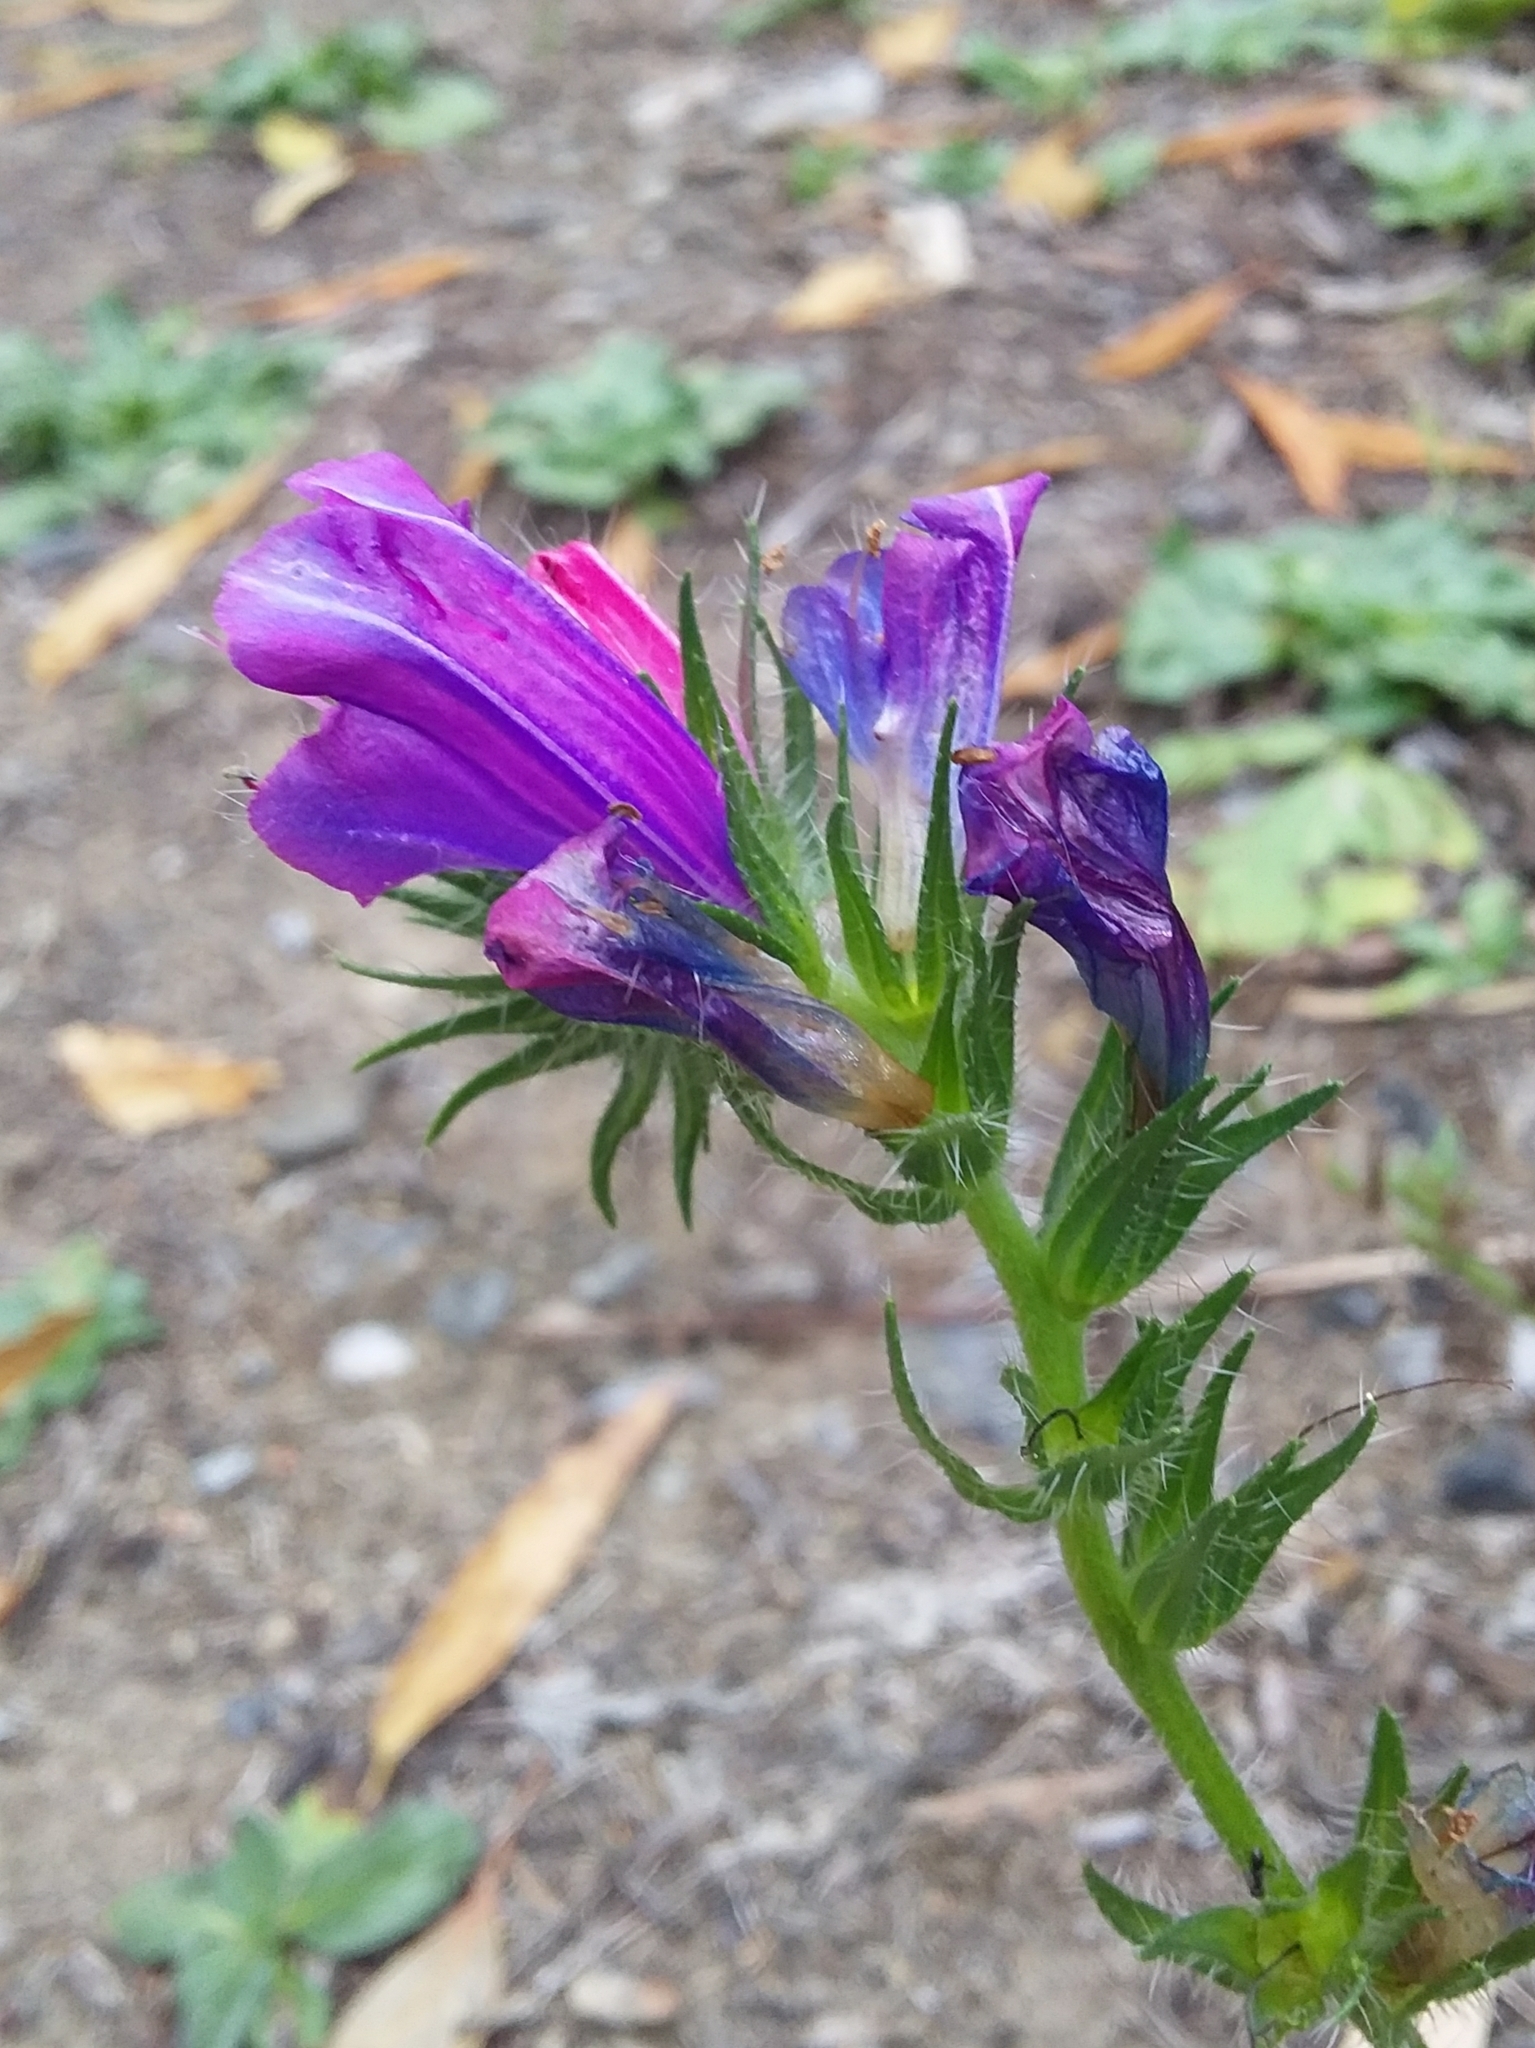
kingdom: Plantae
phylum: Tracheophyta
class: Magnoliopsida
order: Boraginales
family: Boraginaceae
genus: Echium
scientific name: Echium plantagineum
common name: Purple viper's-bugloss
